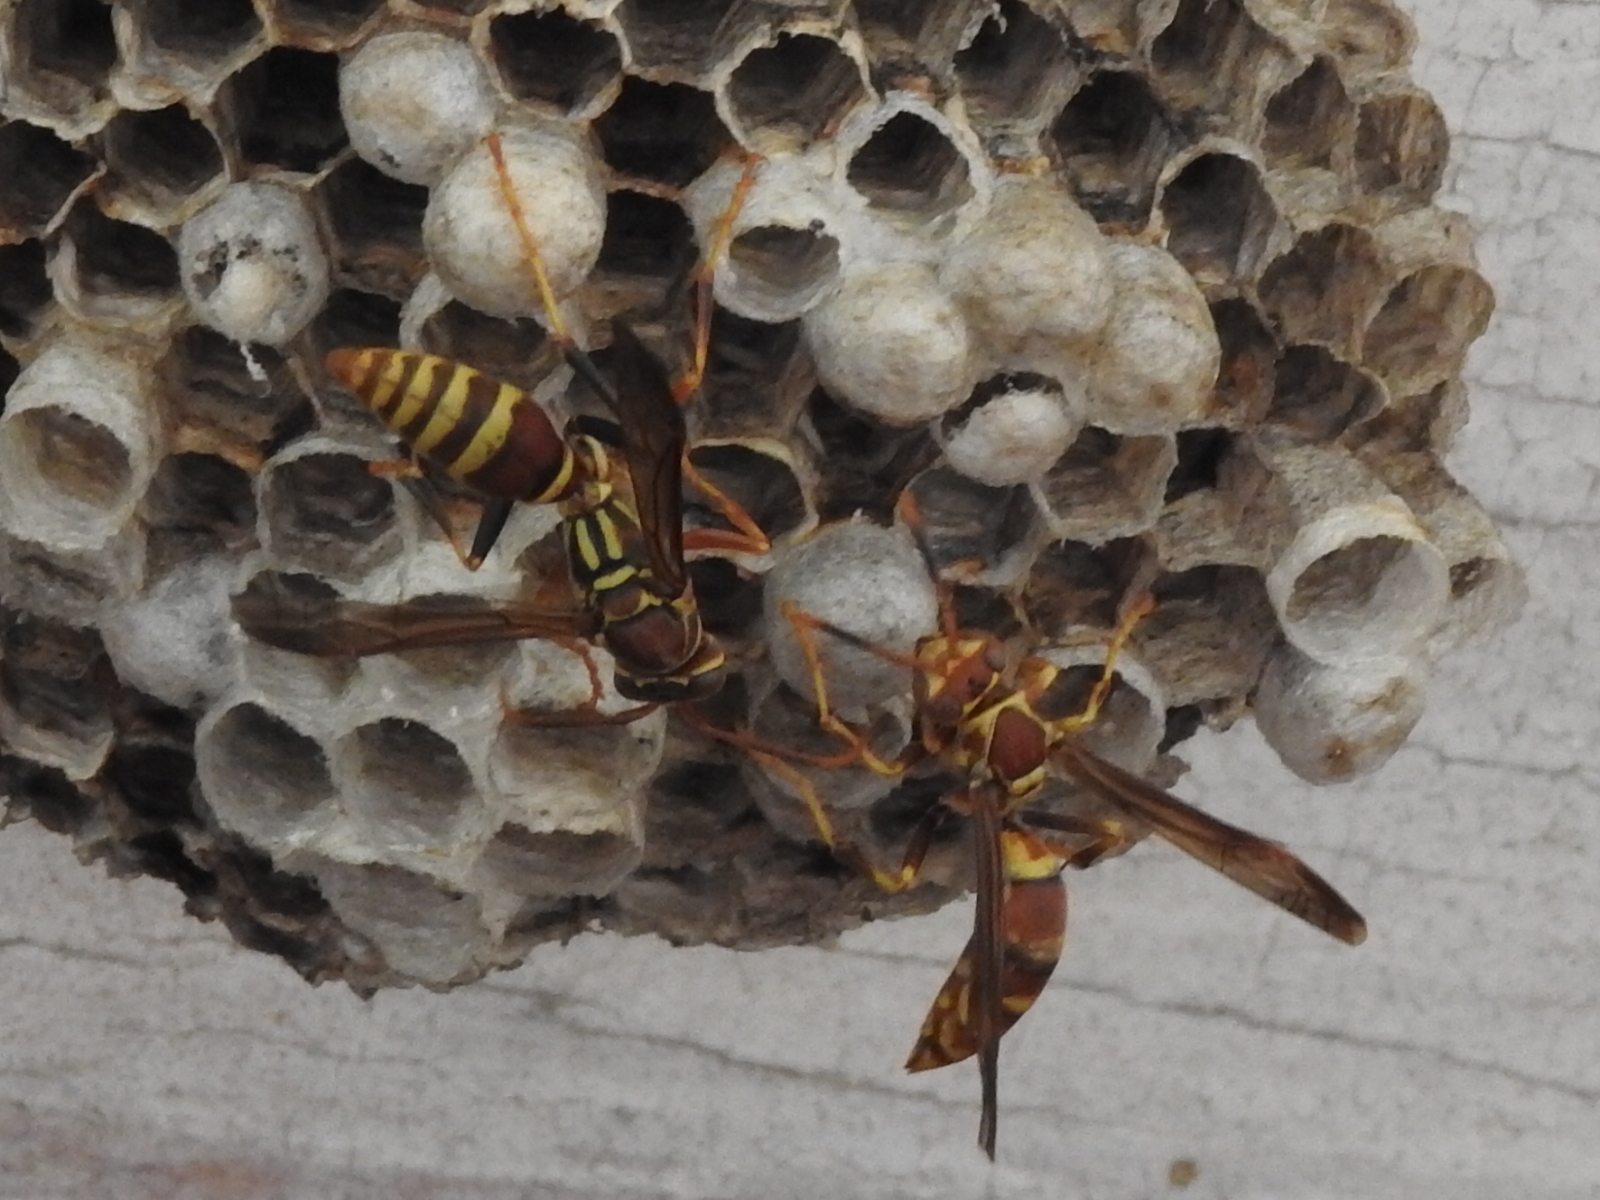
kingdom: Animalia
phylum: Arthropoda
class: Insecta
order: Hymenoptera
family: Eumenidae
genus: Polistes
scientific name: Polistes exclamans
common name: Paper wasp
